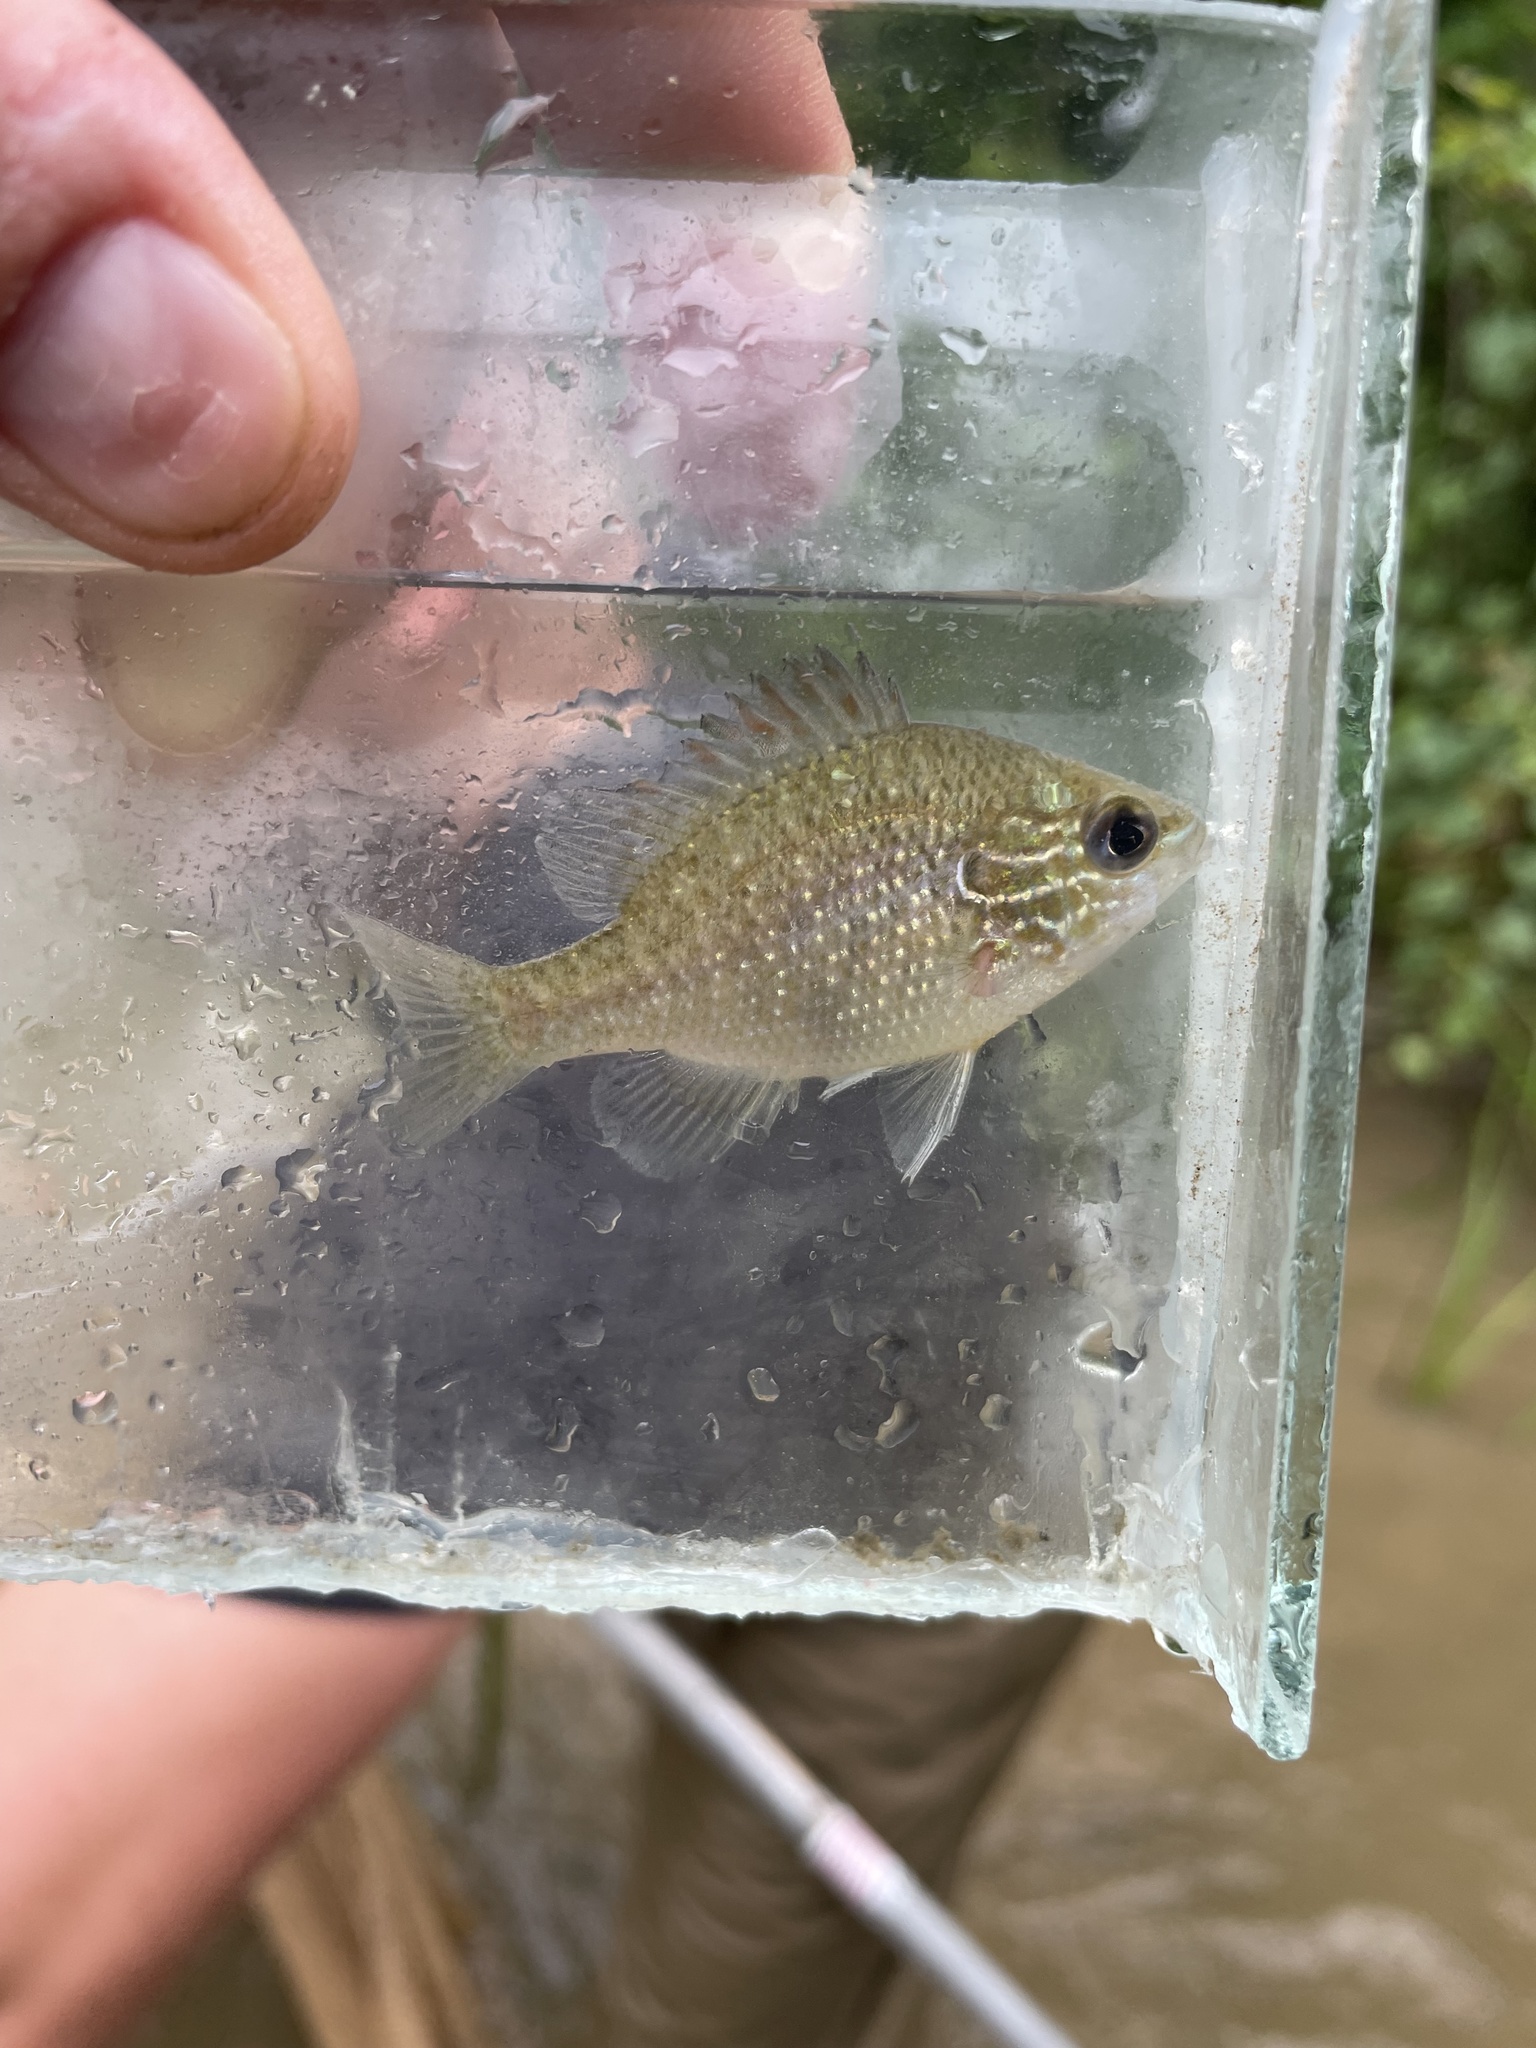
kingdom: Animalia
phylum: Chordata
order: Perciformes
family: Centrarchidae
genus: Lepomis
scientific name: Lepomis marginatus
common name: Dollar sunfish
